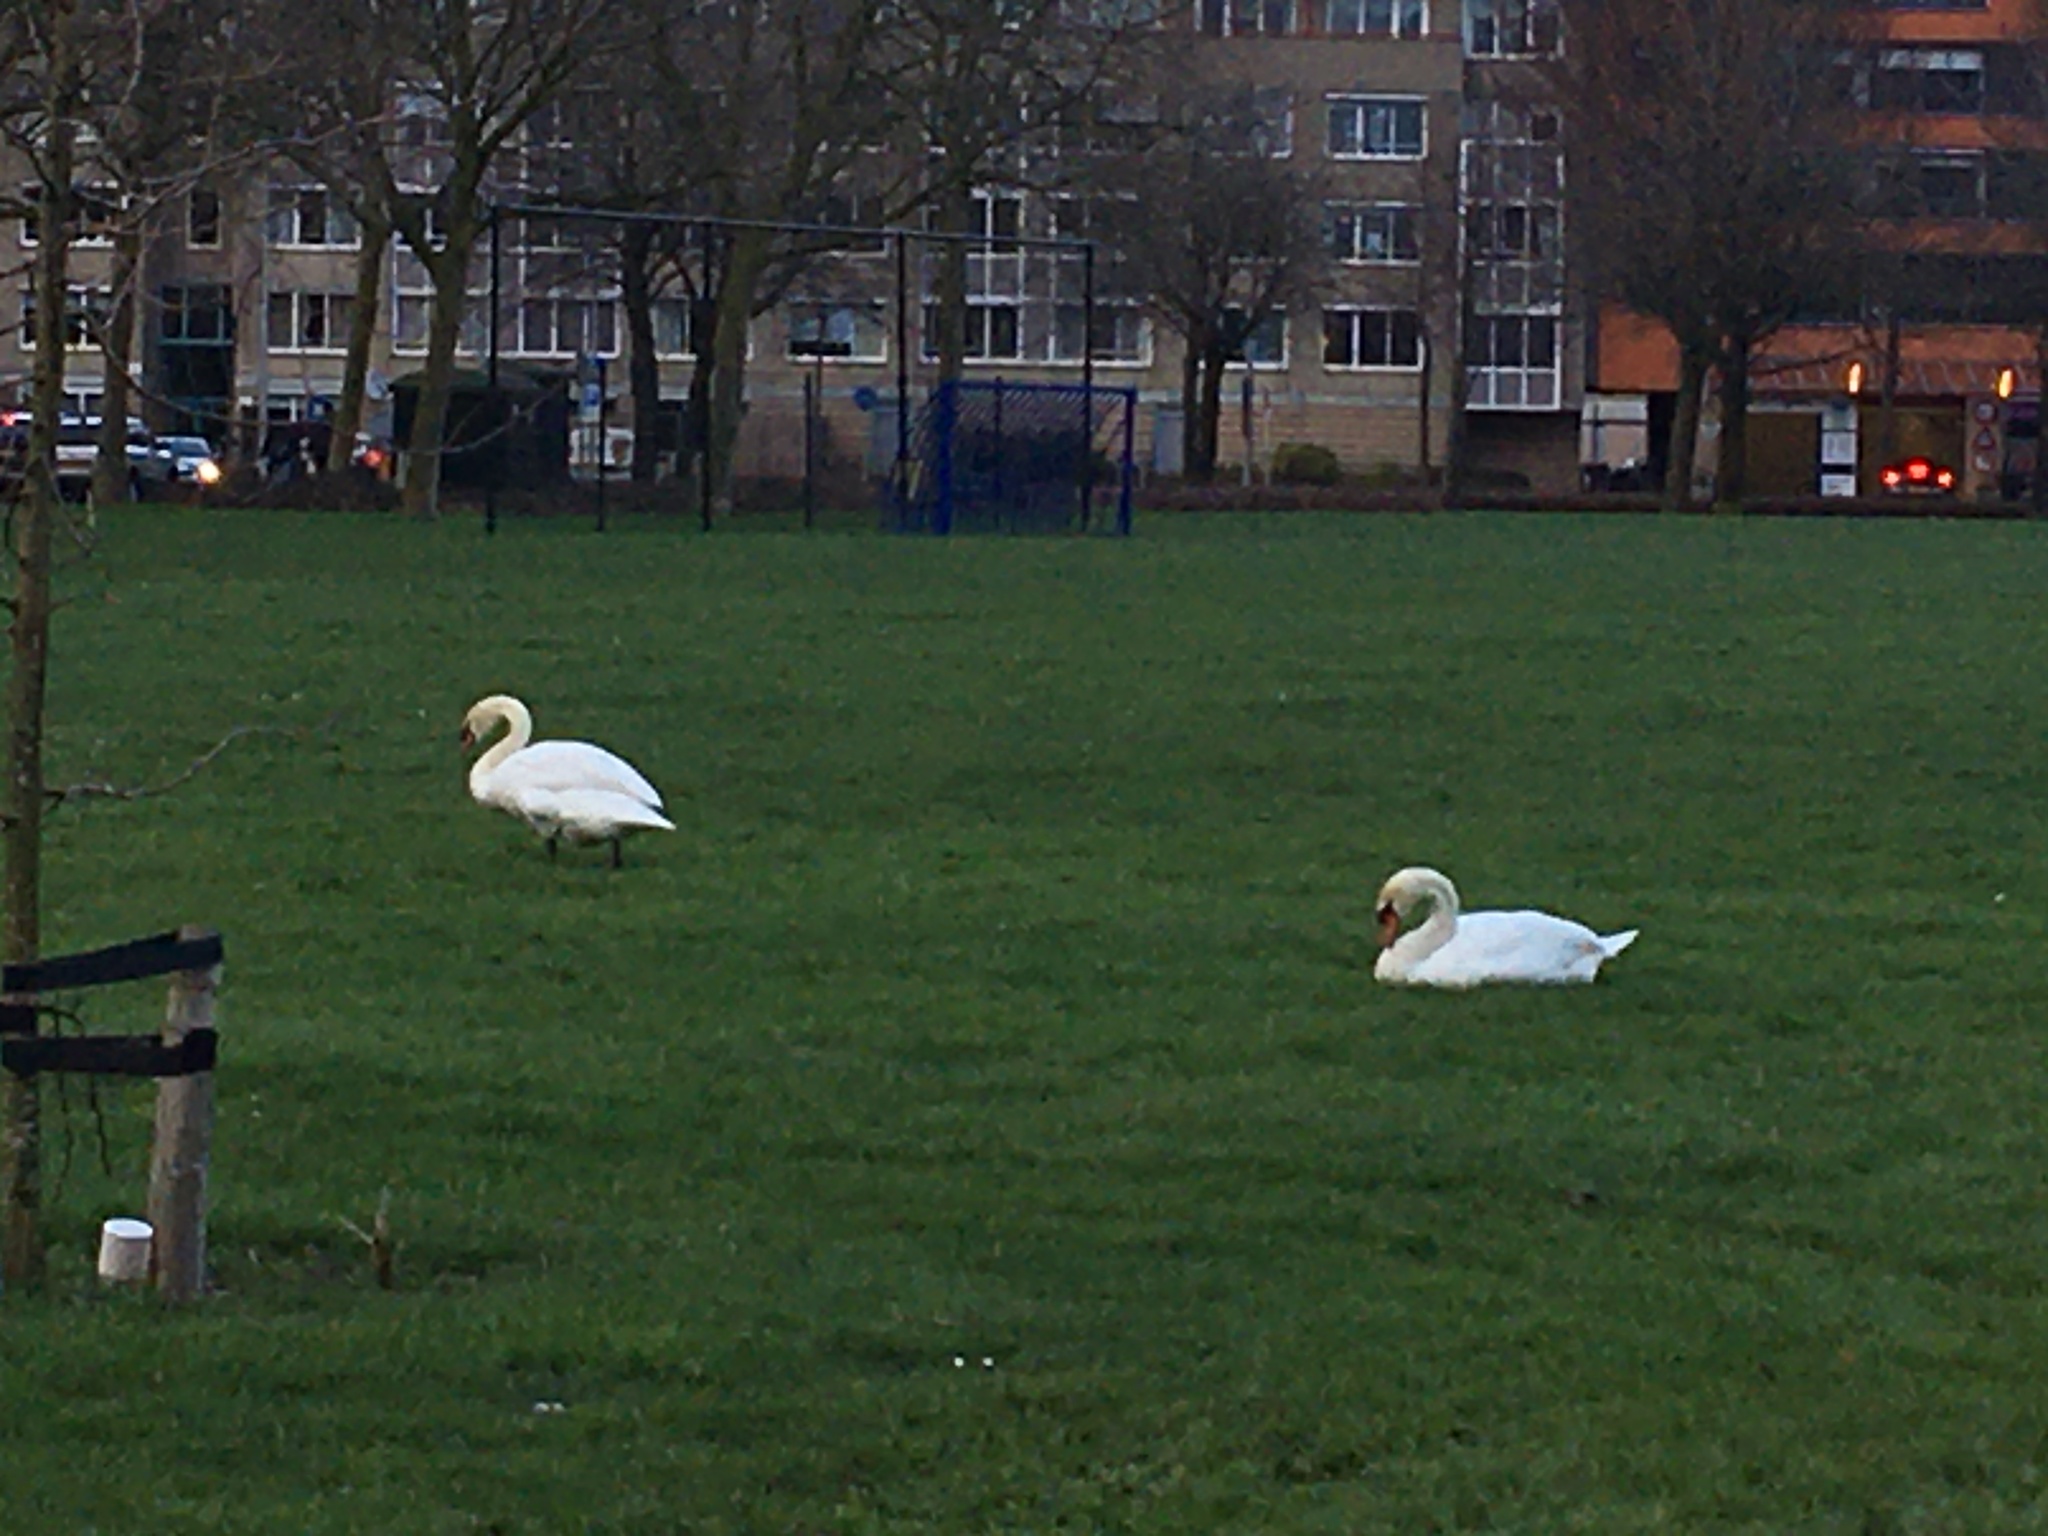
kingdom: Animalia
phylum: Chordata
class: Aves
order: Anseriformes
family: Anatidae
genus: Cygnus
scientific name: Cygnus olor
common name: Mute swan
